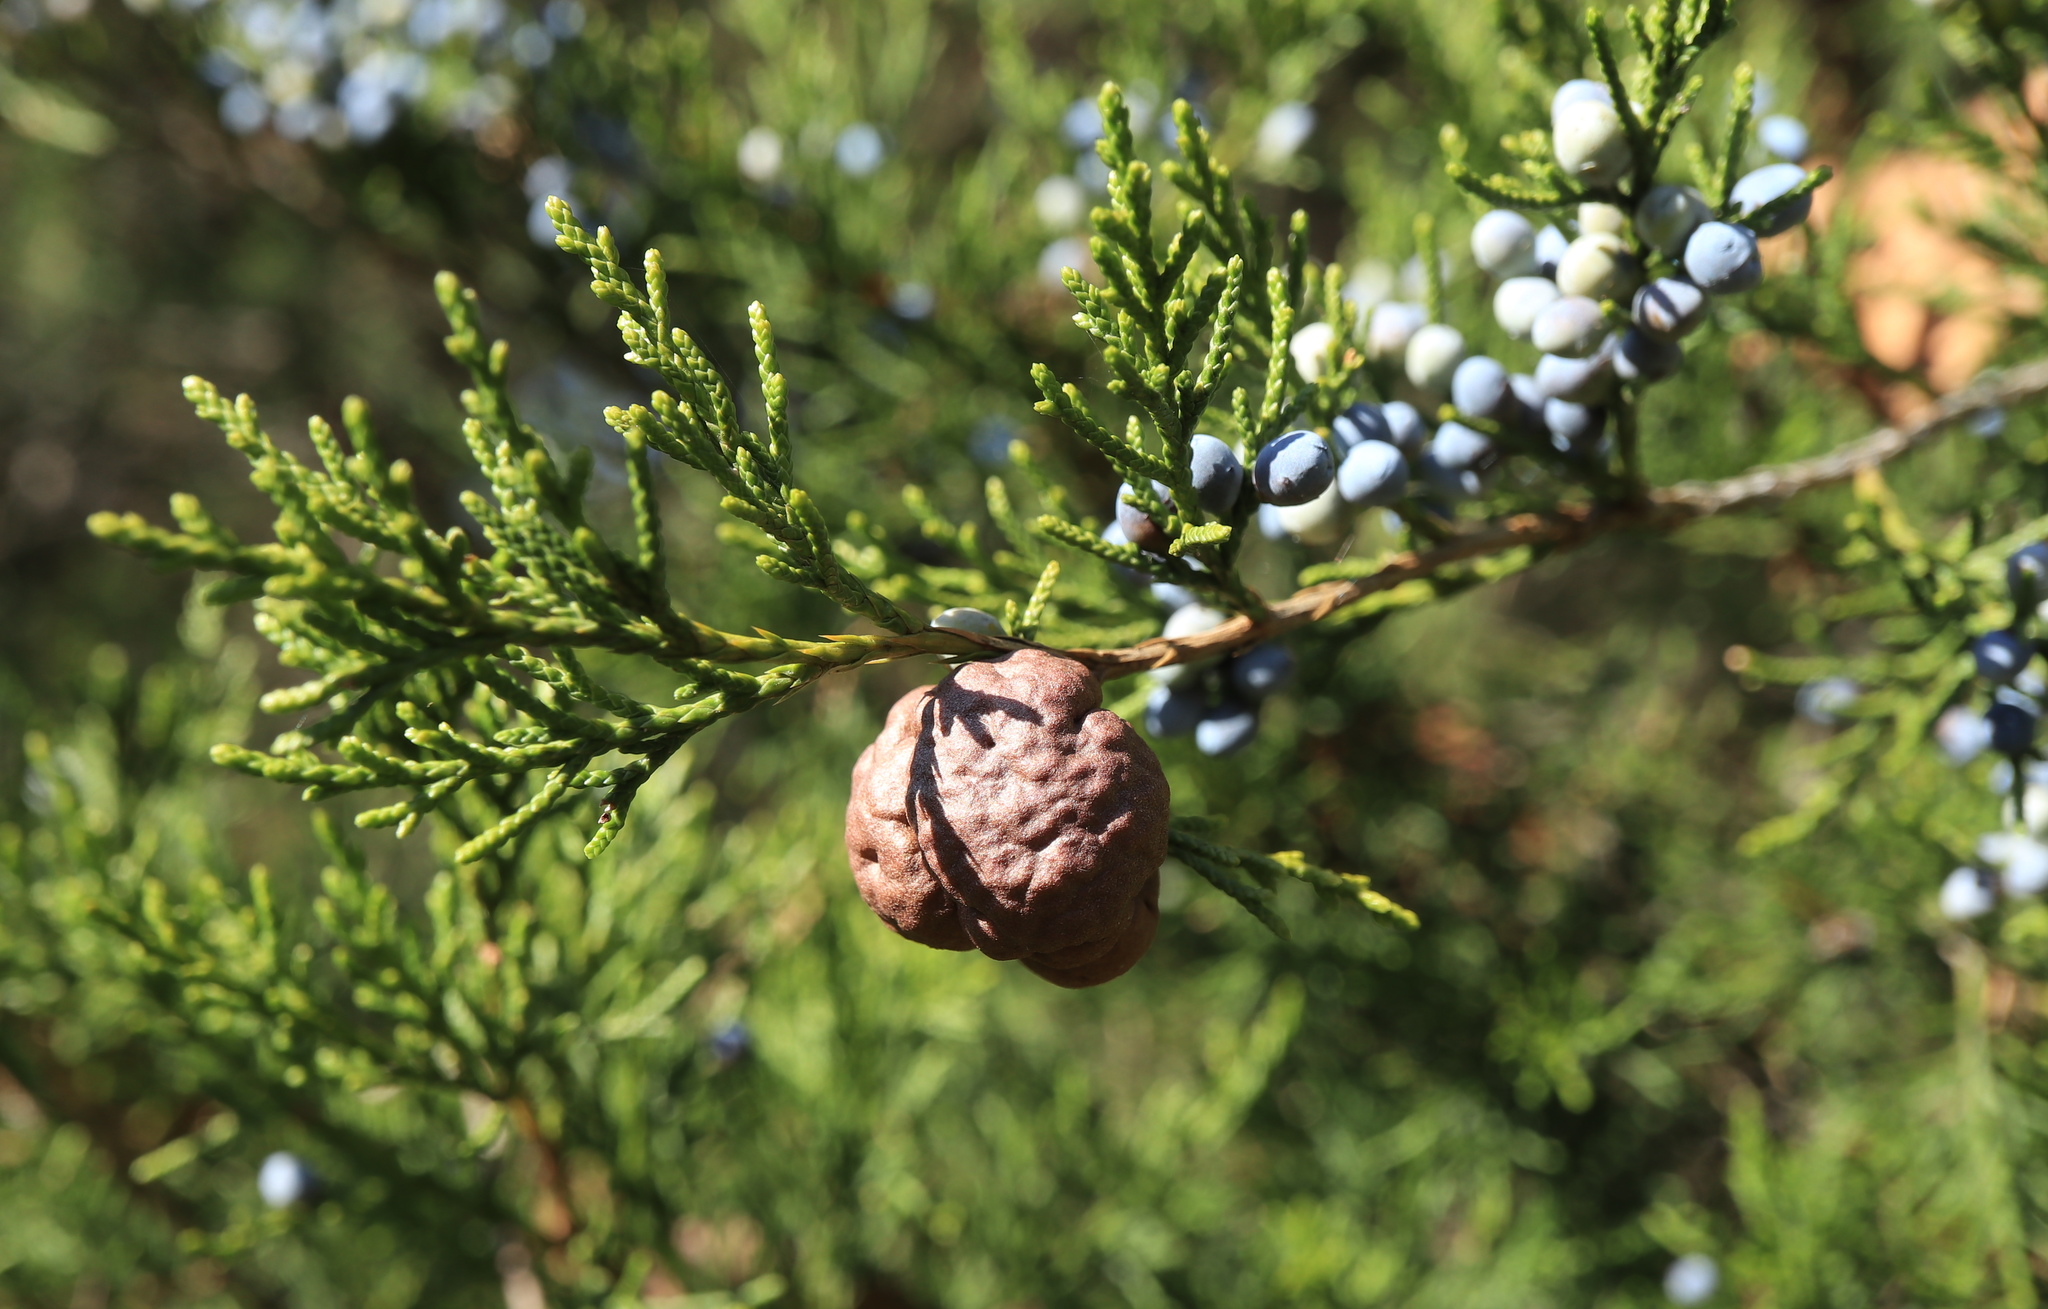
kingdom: Fungi
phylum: Basidiomycota
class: Pucciniomycetes
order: Pucciniales
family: Gymnosporangiaceae
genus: Gymnosporangium
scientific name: Gymnosporangium juniperi-virginianae
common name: Juniper-apple rust
